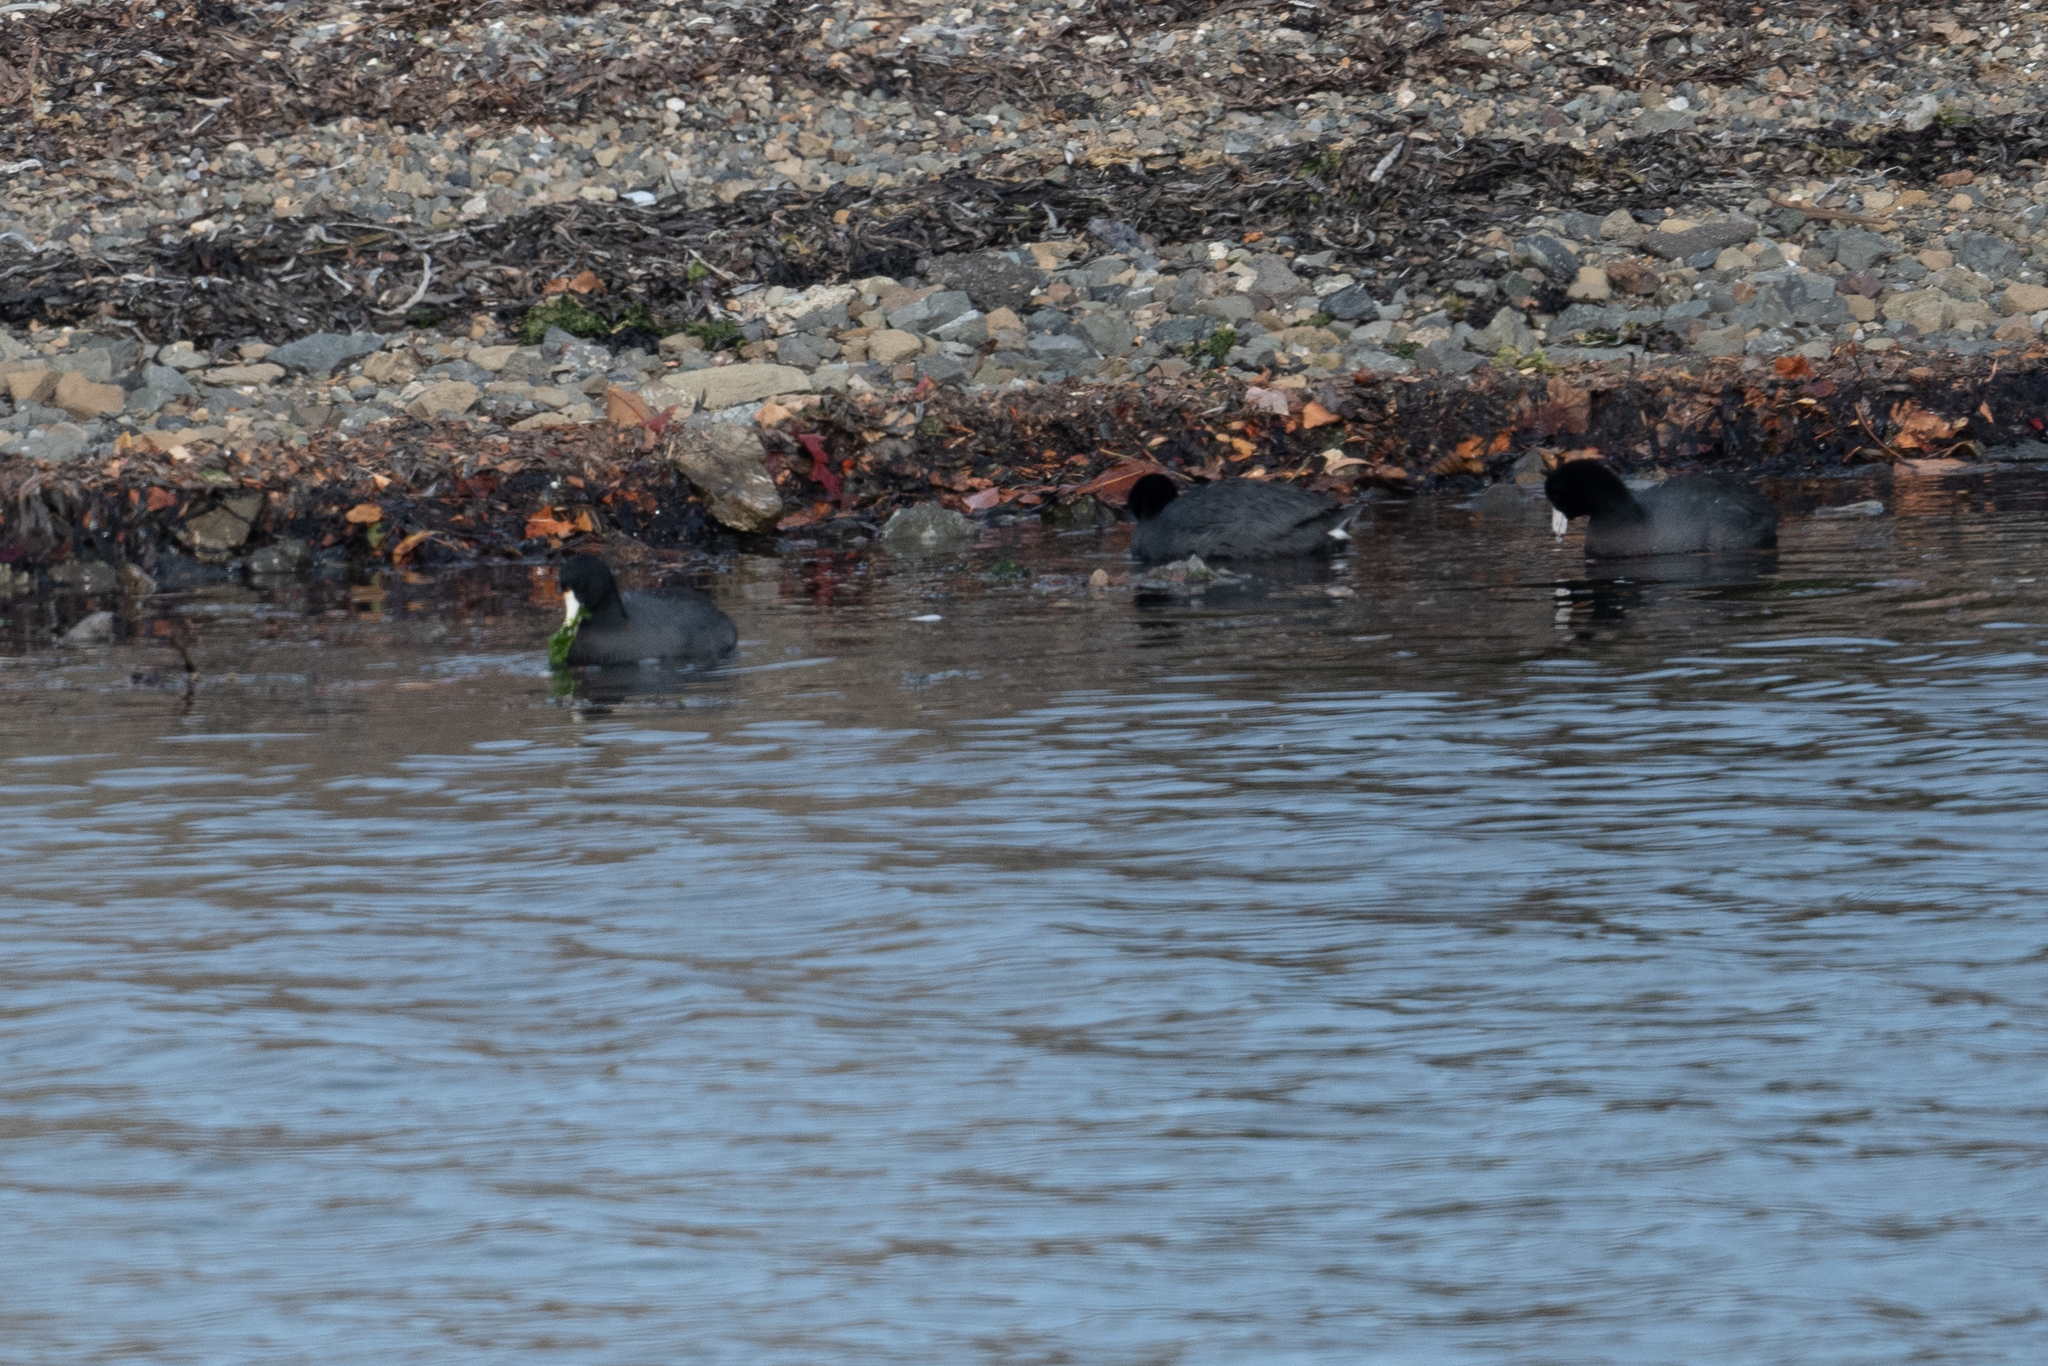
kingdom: Animalia
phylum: Chordata
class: Aves
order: Gruiformes
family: Rallidae
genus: Fulica
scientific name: Fulica americana
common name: American coot
